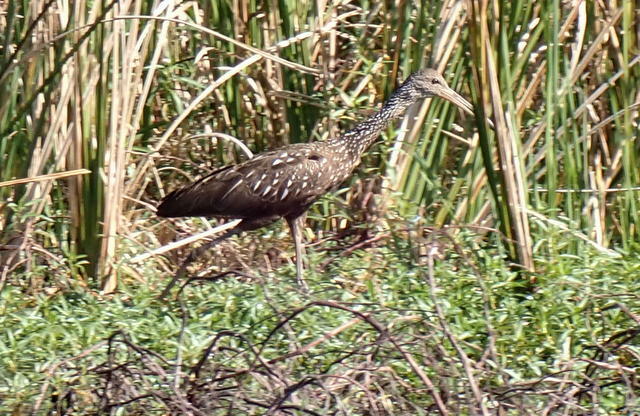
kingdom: Animalia
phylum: Chordata
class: Aves
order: Gruiformes
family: Aramidae
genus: Aramus
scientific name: Aramus guarauna
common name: Limpkin
